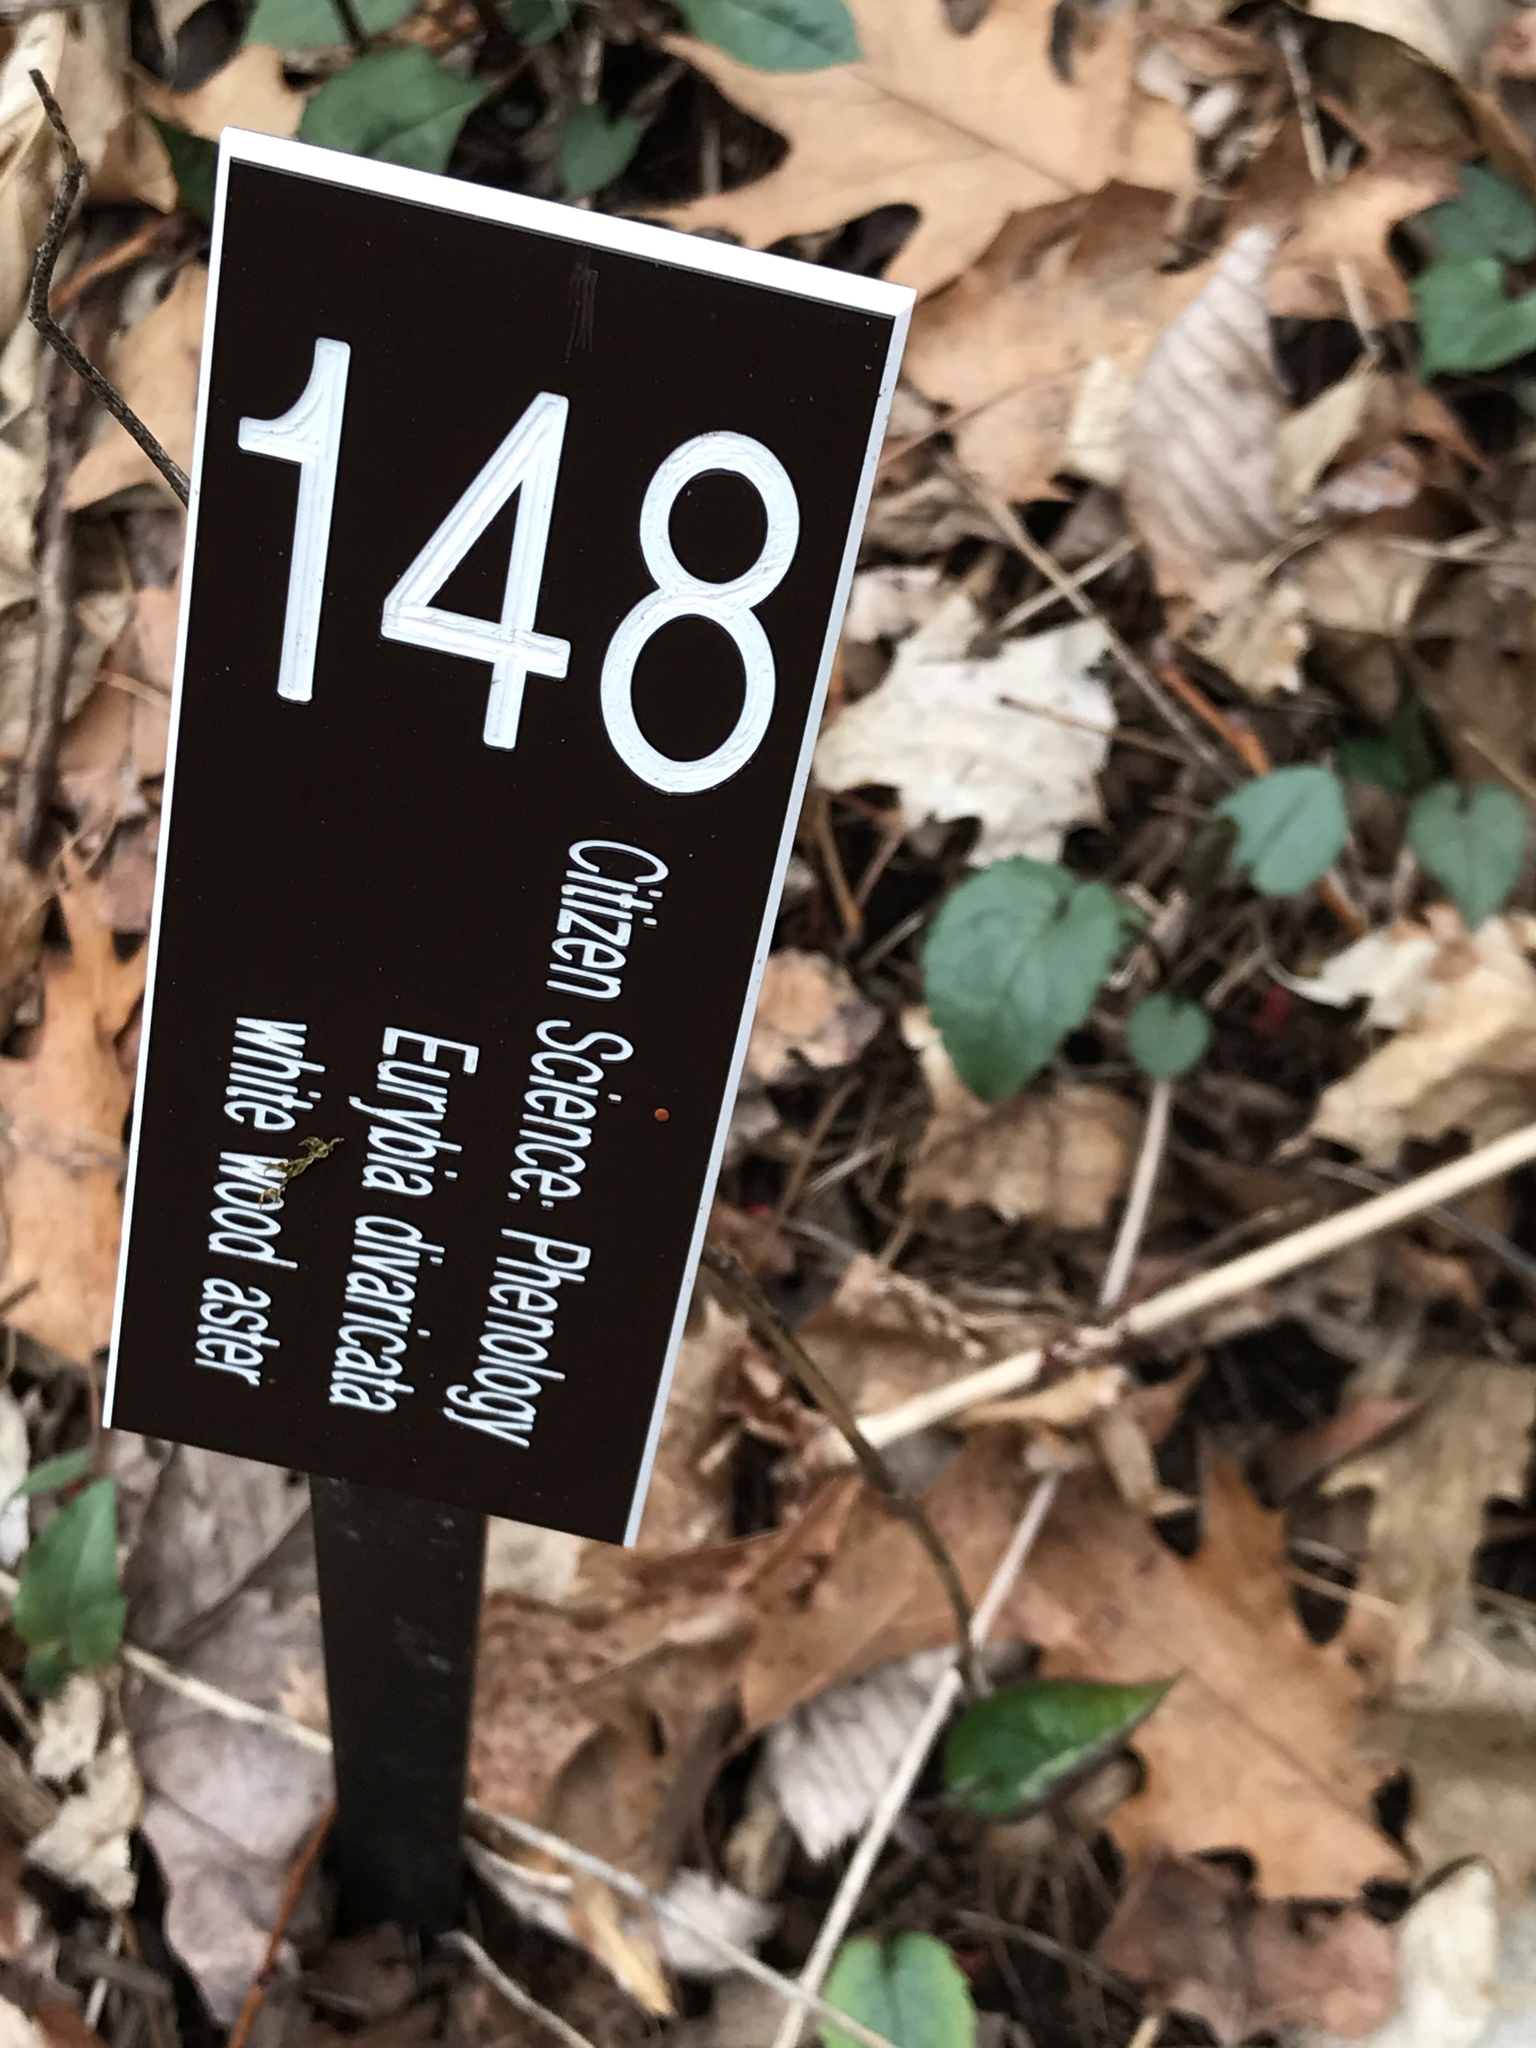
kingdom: Plantae
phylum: Tracheophyta
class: Magnoliopsida
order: Asterales
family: Asteraceae
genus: Eurybia
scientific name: Eurybia divaricata
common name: White wood aster
